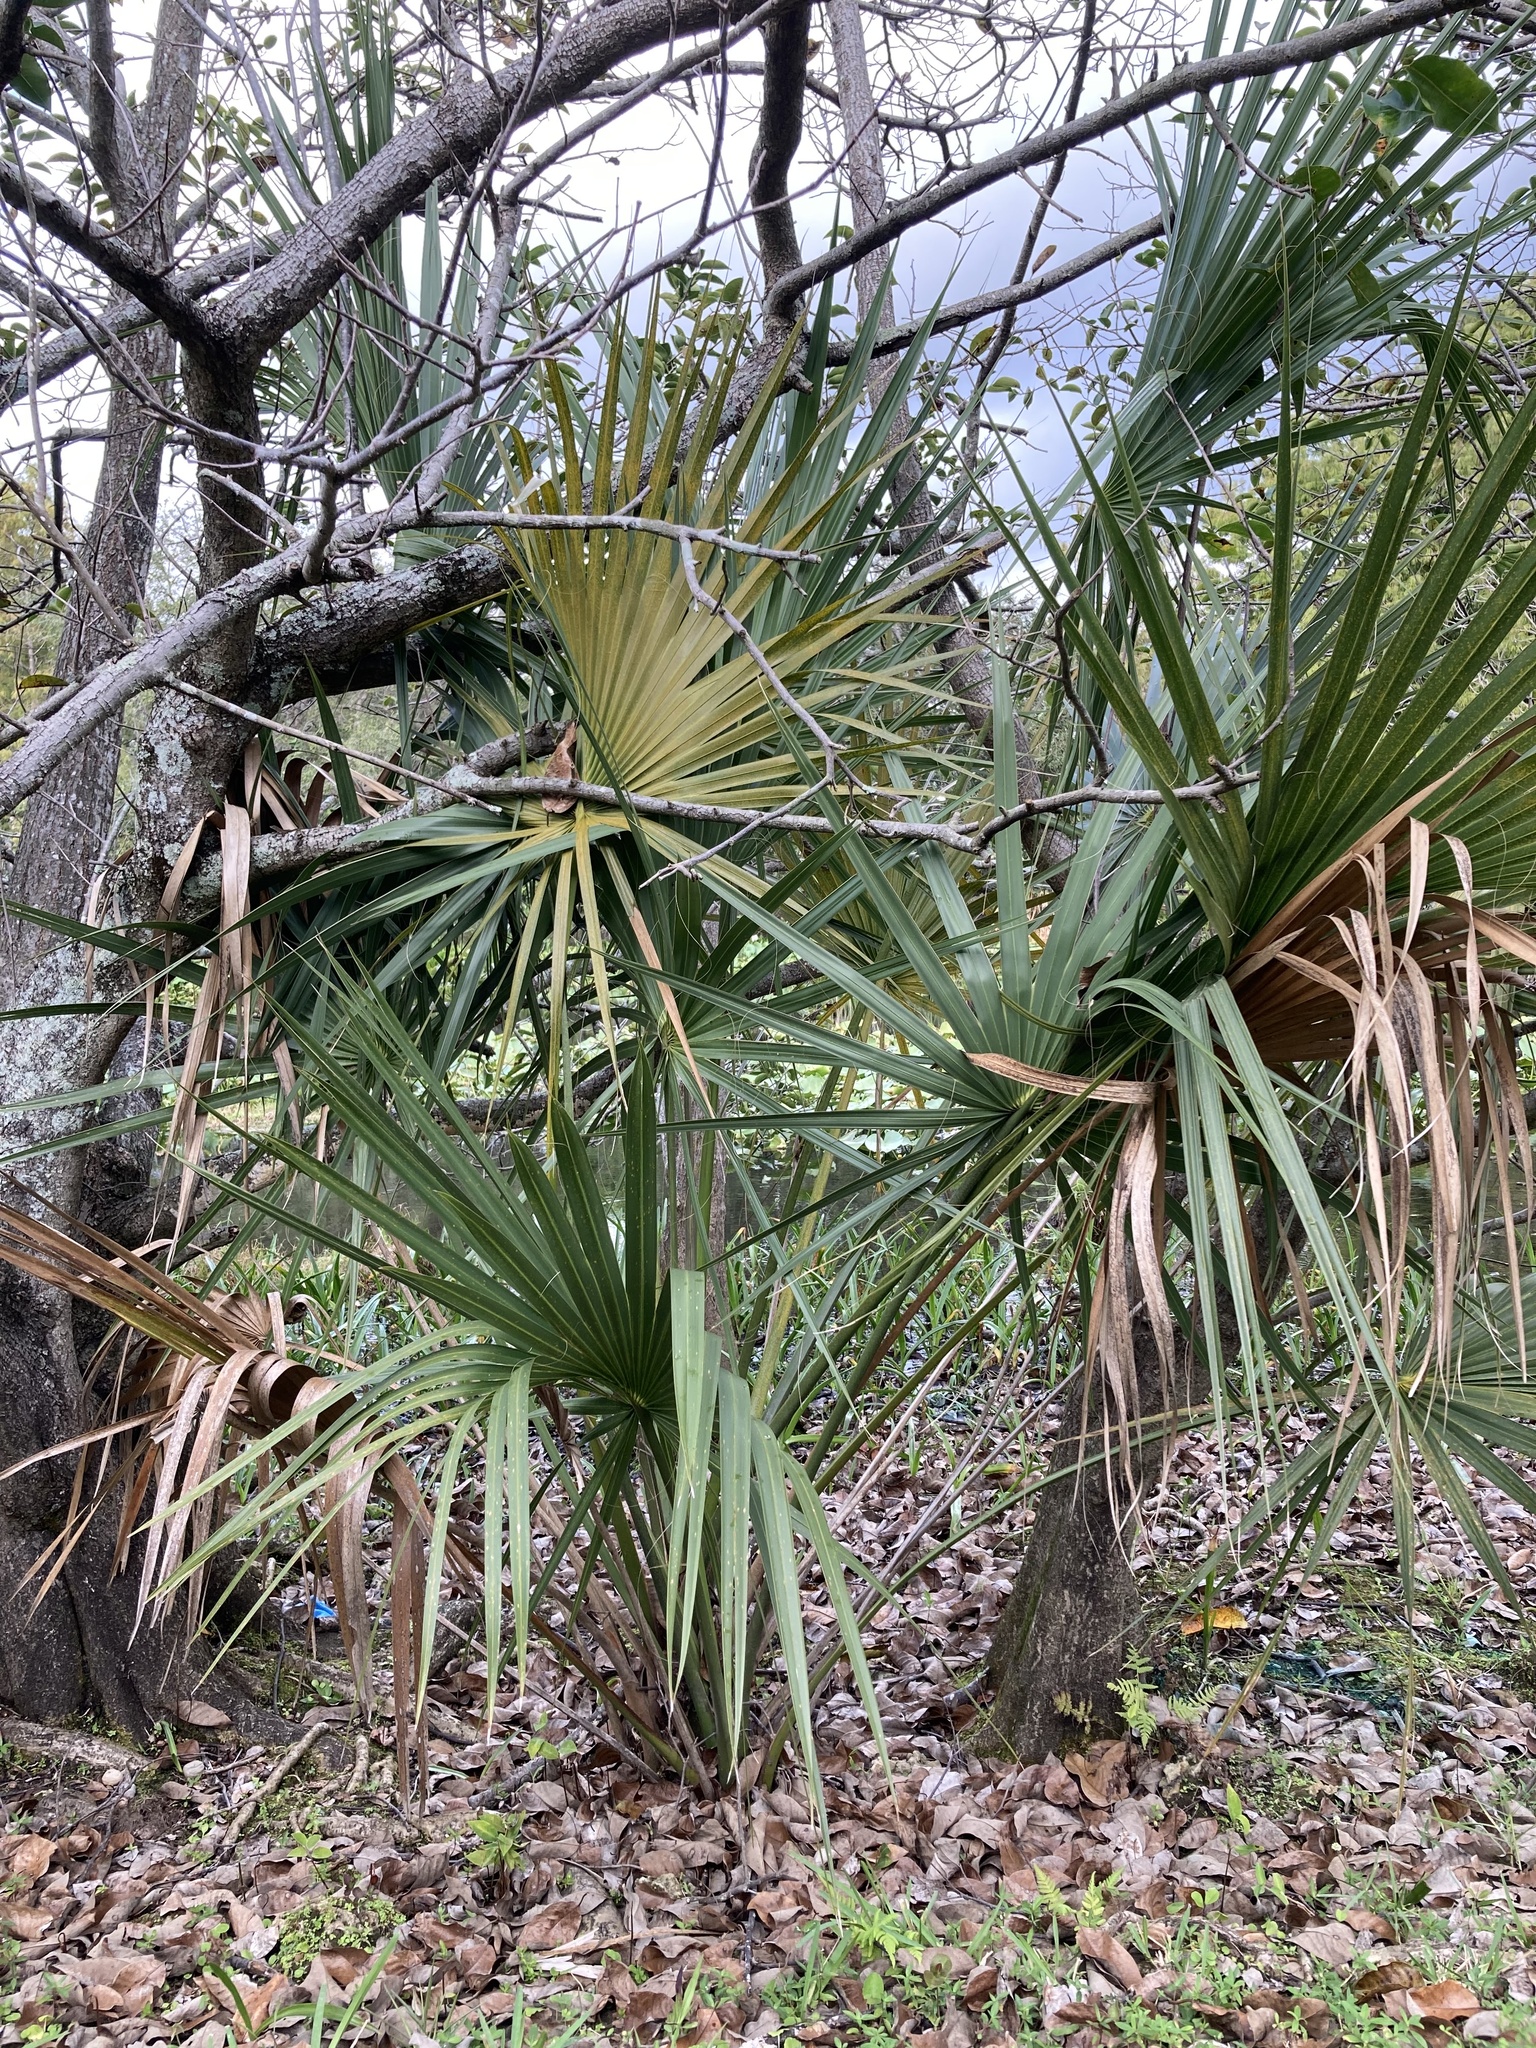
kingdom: Plantae
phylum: Tracheophyta
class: Liliopsida
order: Arecales
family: Arecaceae
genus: Sabal
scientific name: Sabal palmetto
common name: Blue palmetto
